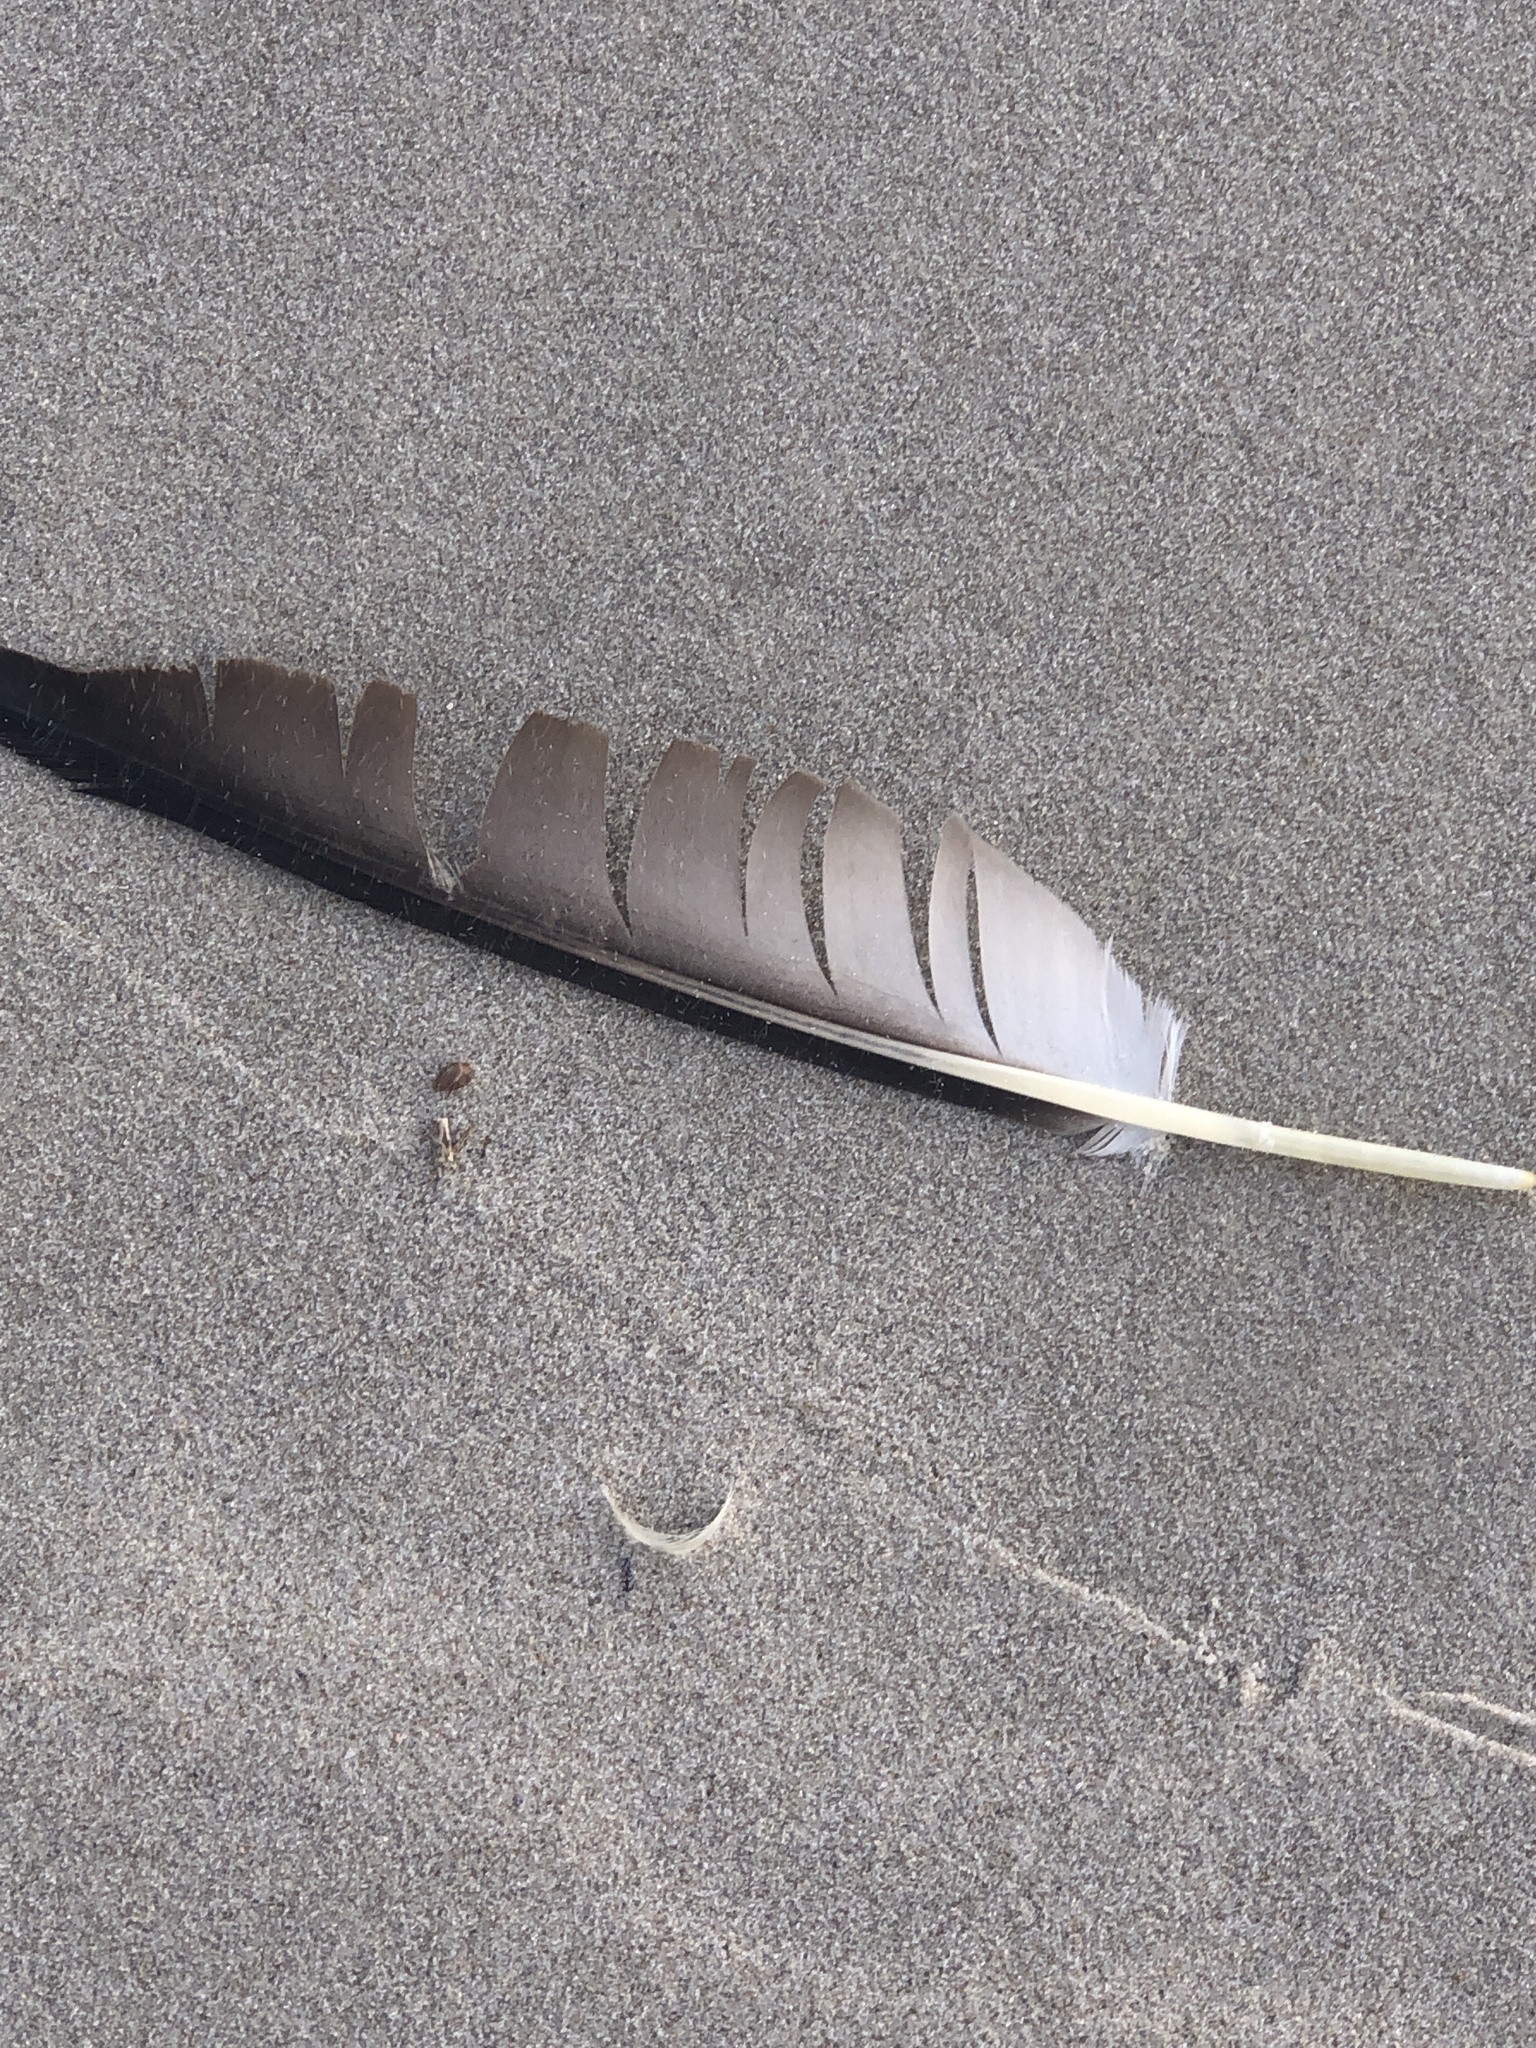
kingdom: Animalia
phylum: Chordata
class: Aves
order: Suliformes
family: Sulidae
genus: Morus
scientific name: Morus bassanus
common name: Northern gannet
